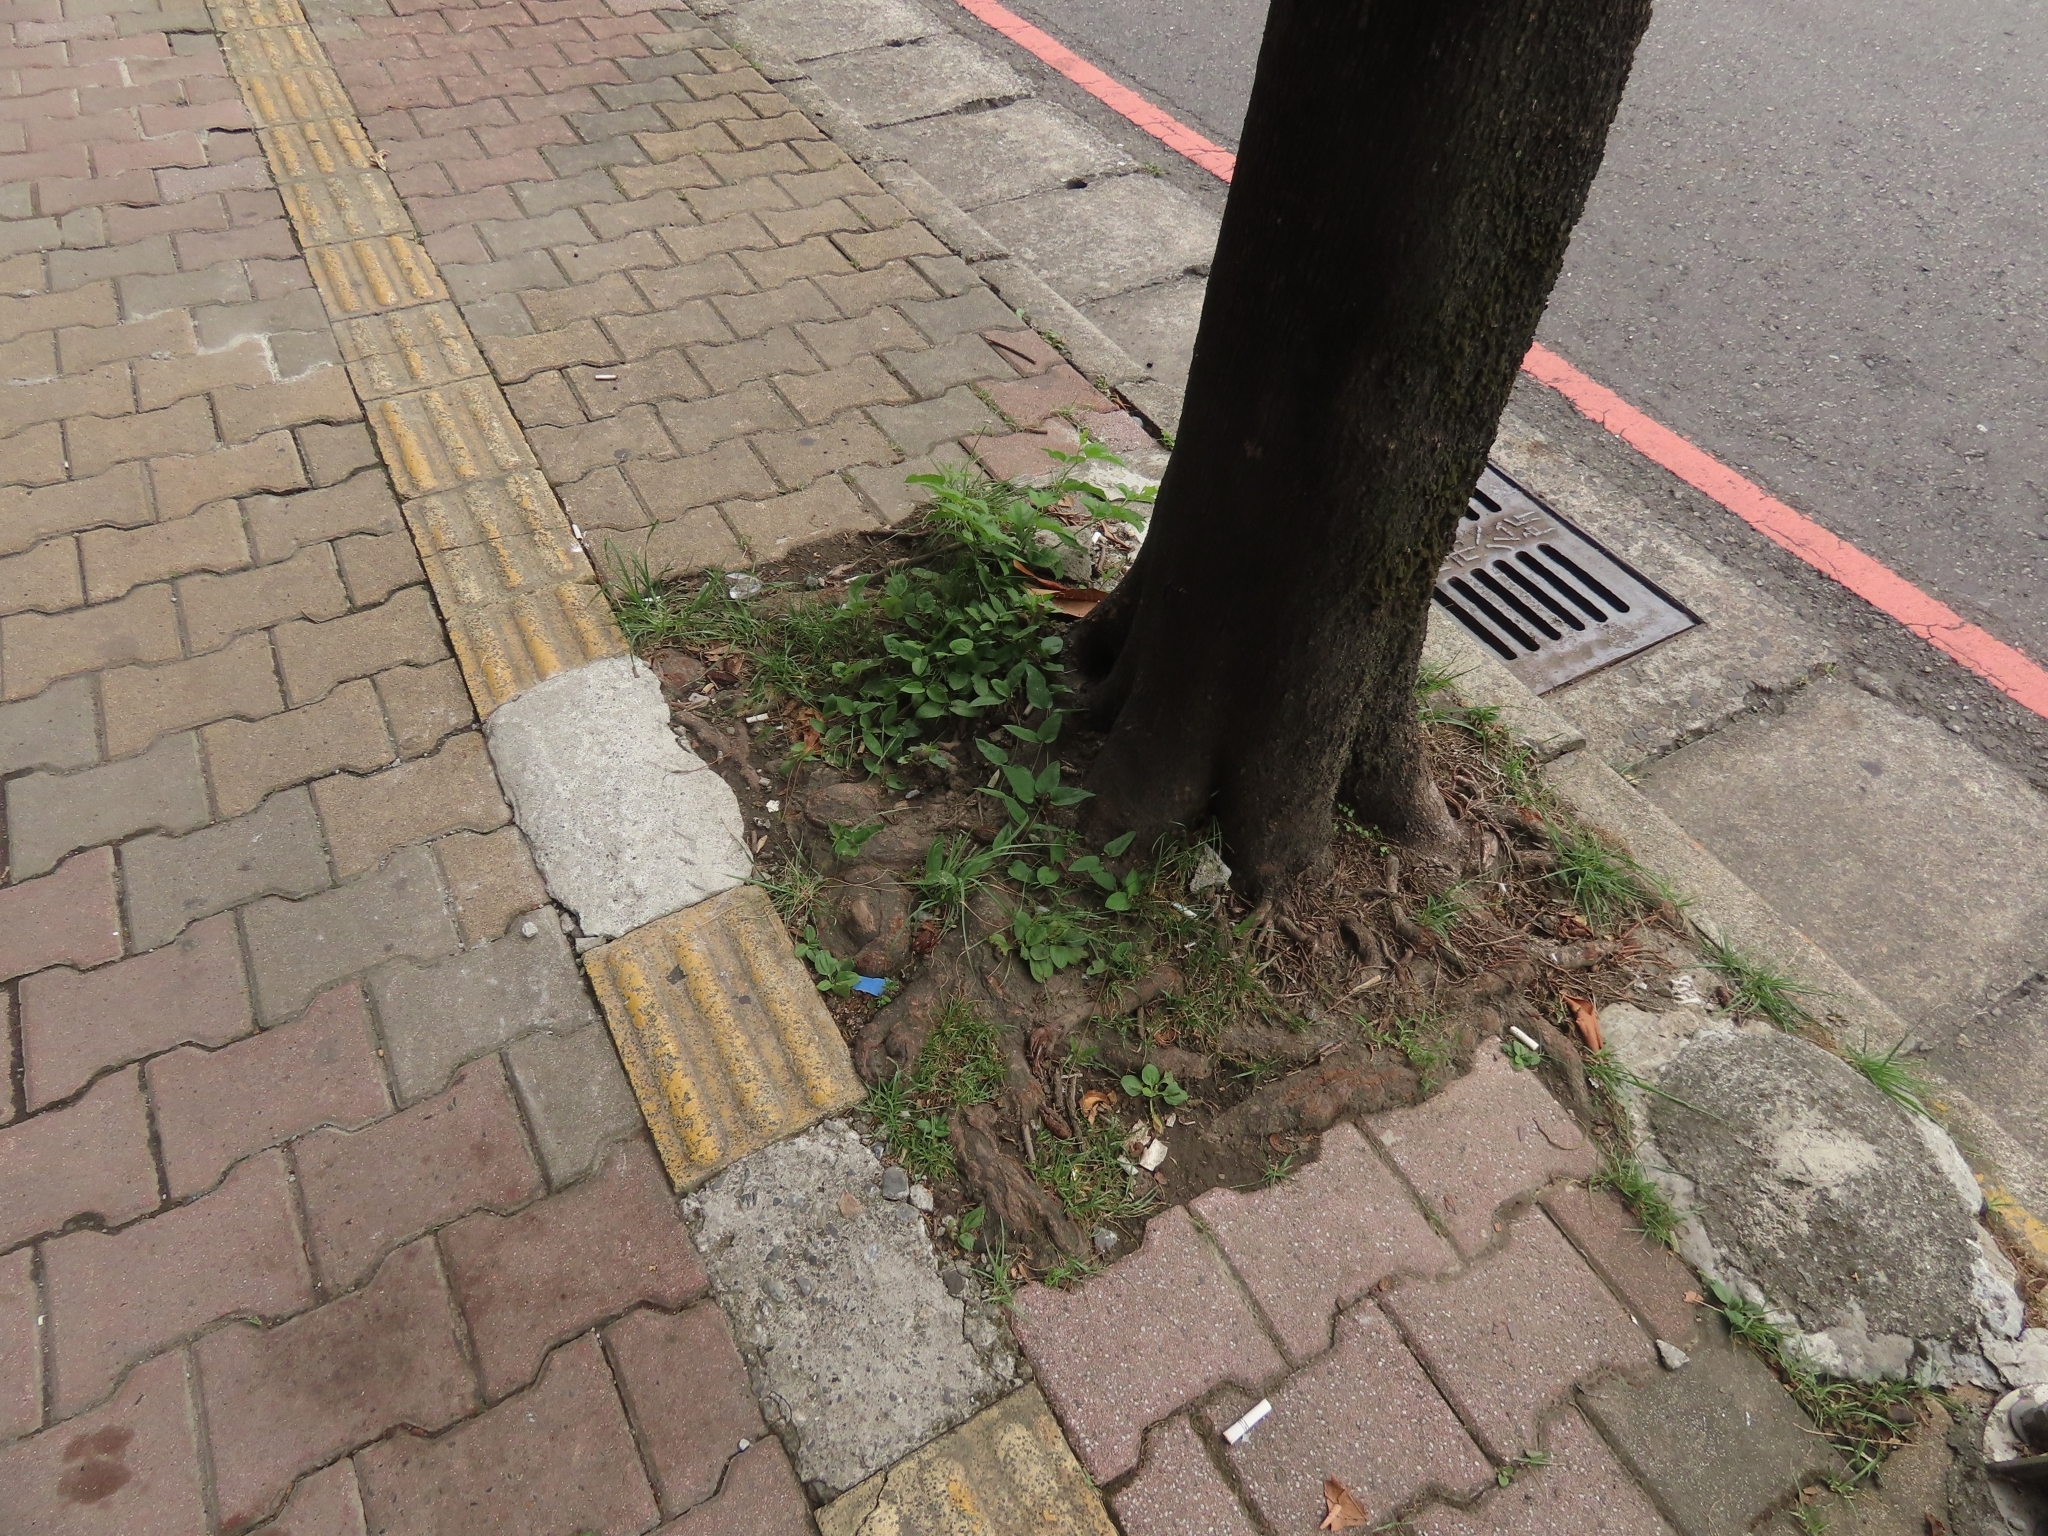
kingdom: Plantae
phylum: Tracheophyta
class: Magnoliopsida
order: Gentianales
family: Rubiaceae
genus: Paederia
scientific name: Paederia foetida
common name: Stinkvine
